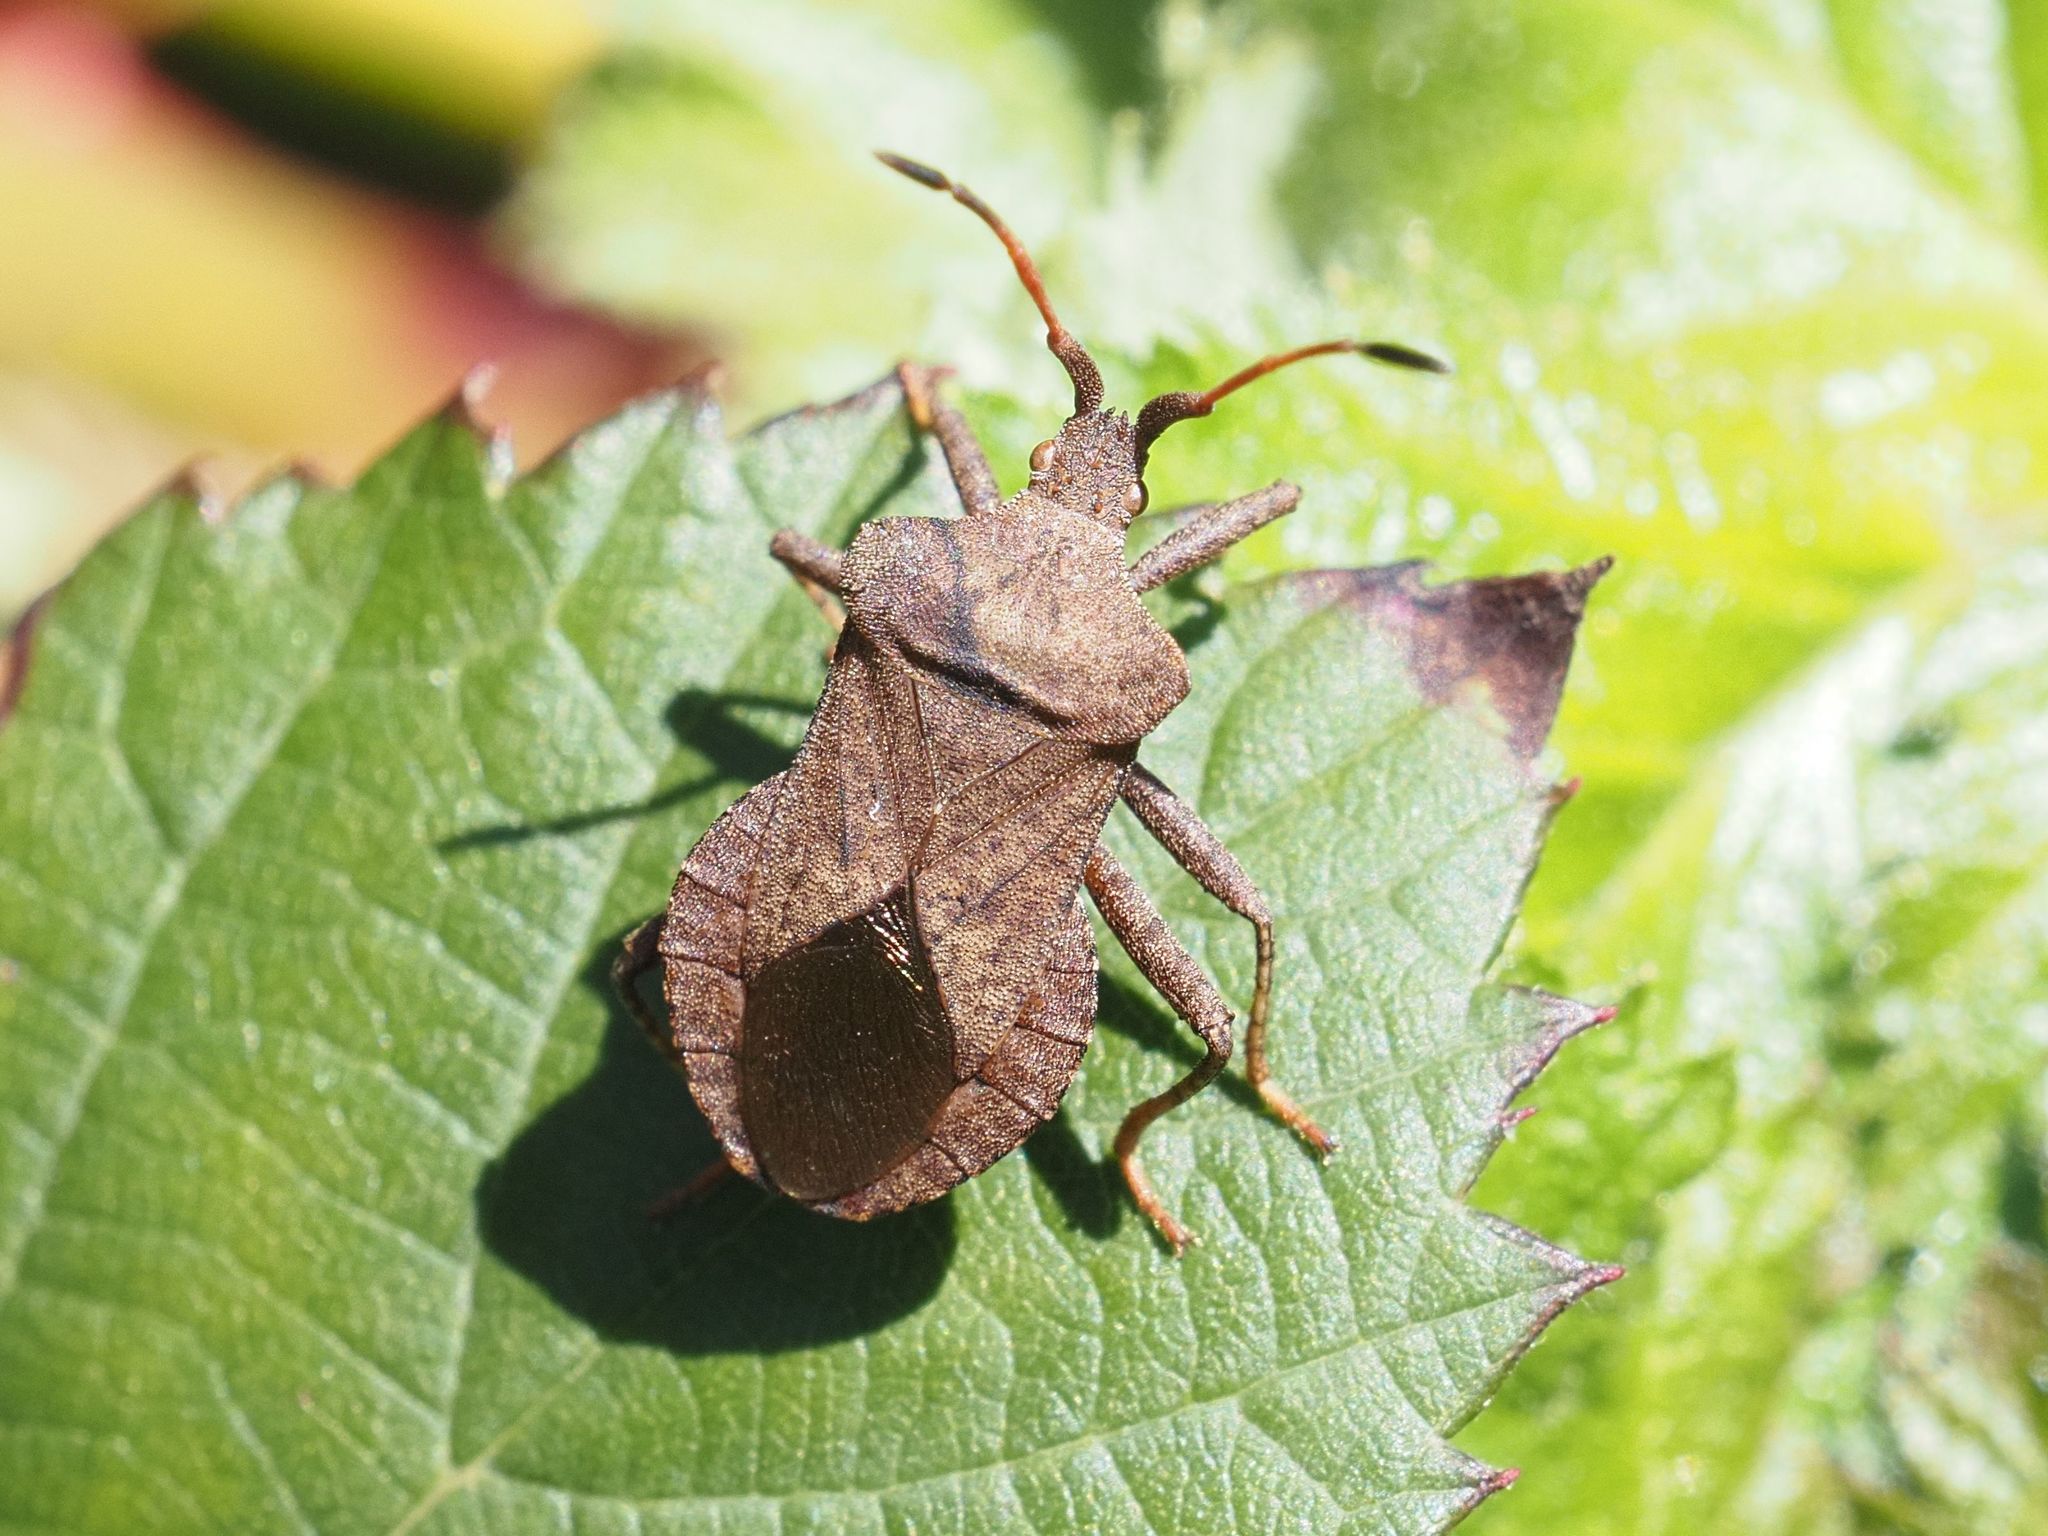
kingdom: Animalia
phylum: Arthropoda
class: Insecta
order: Hemiptera
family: Coreidae
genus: Coreus
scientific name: Coreus marginatus
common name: Dock bug
